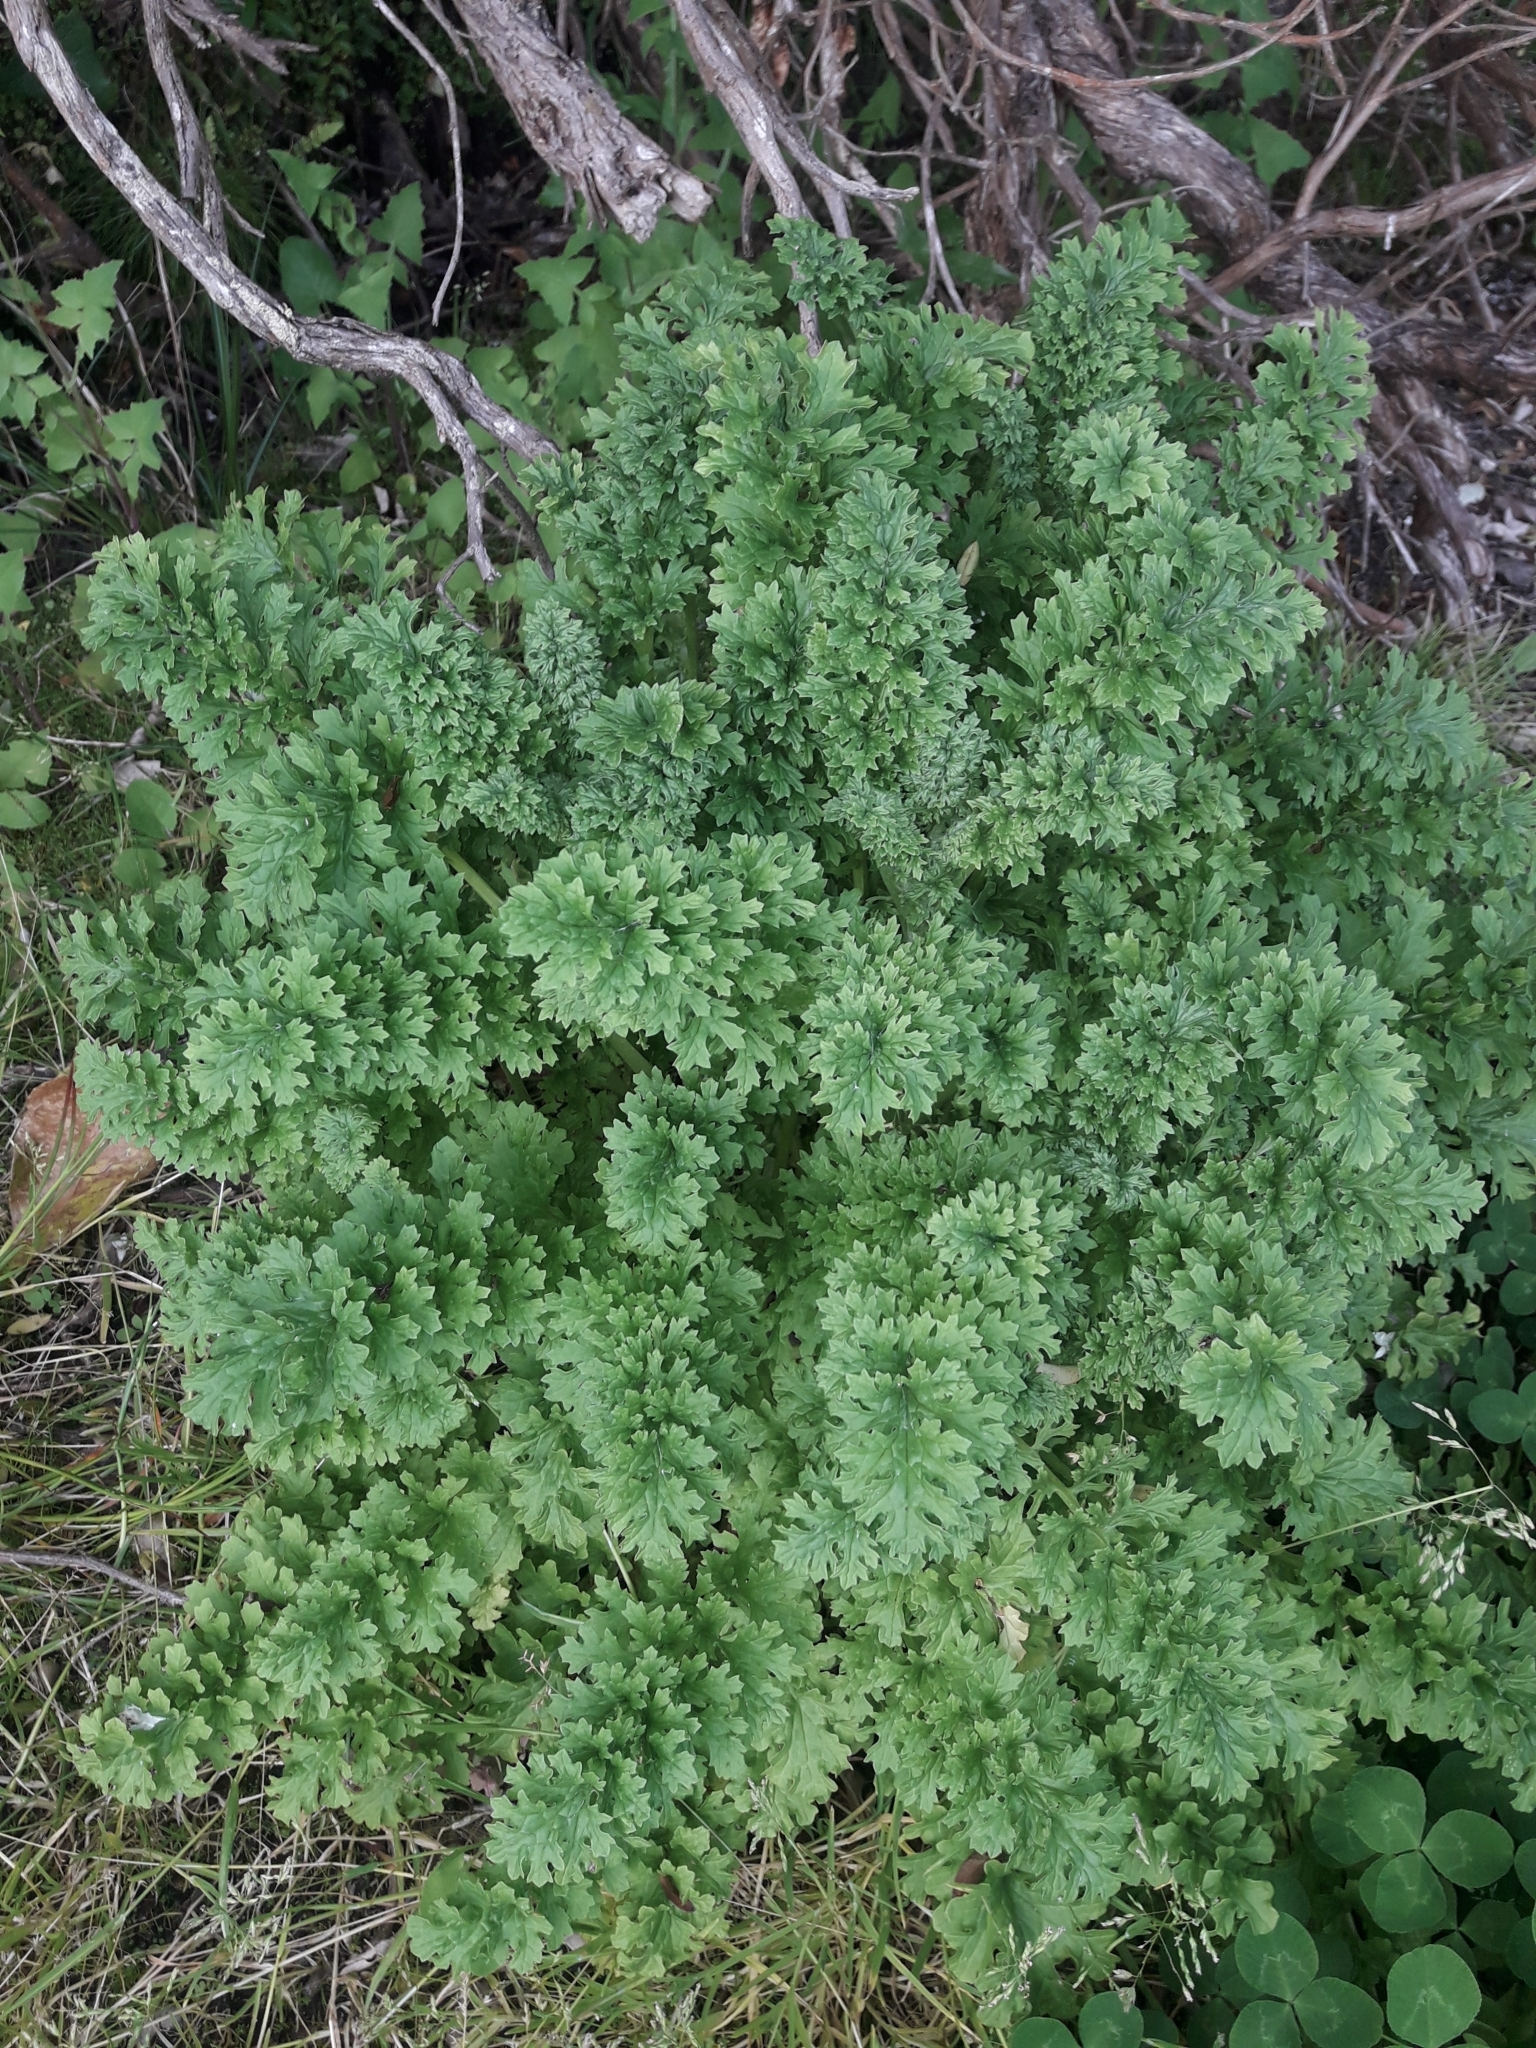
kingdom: Plantae
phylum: Tracheophyta
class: Magnoliopsida
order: Asterales
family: Asteraceae
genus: Jacobaea
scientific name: Jacobaea vulgaris
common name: Stinking willie
